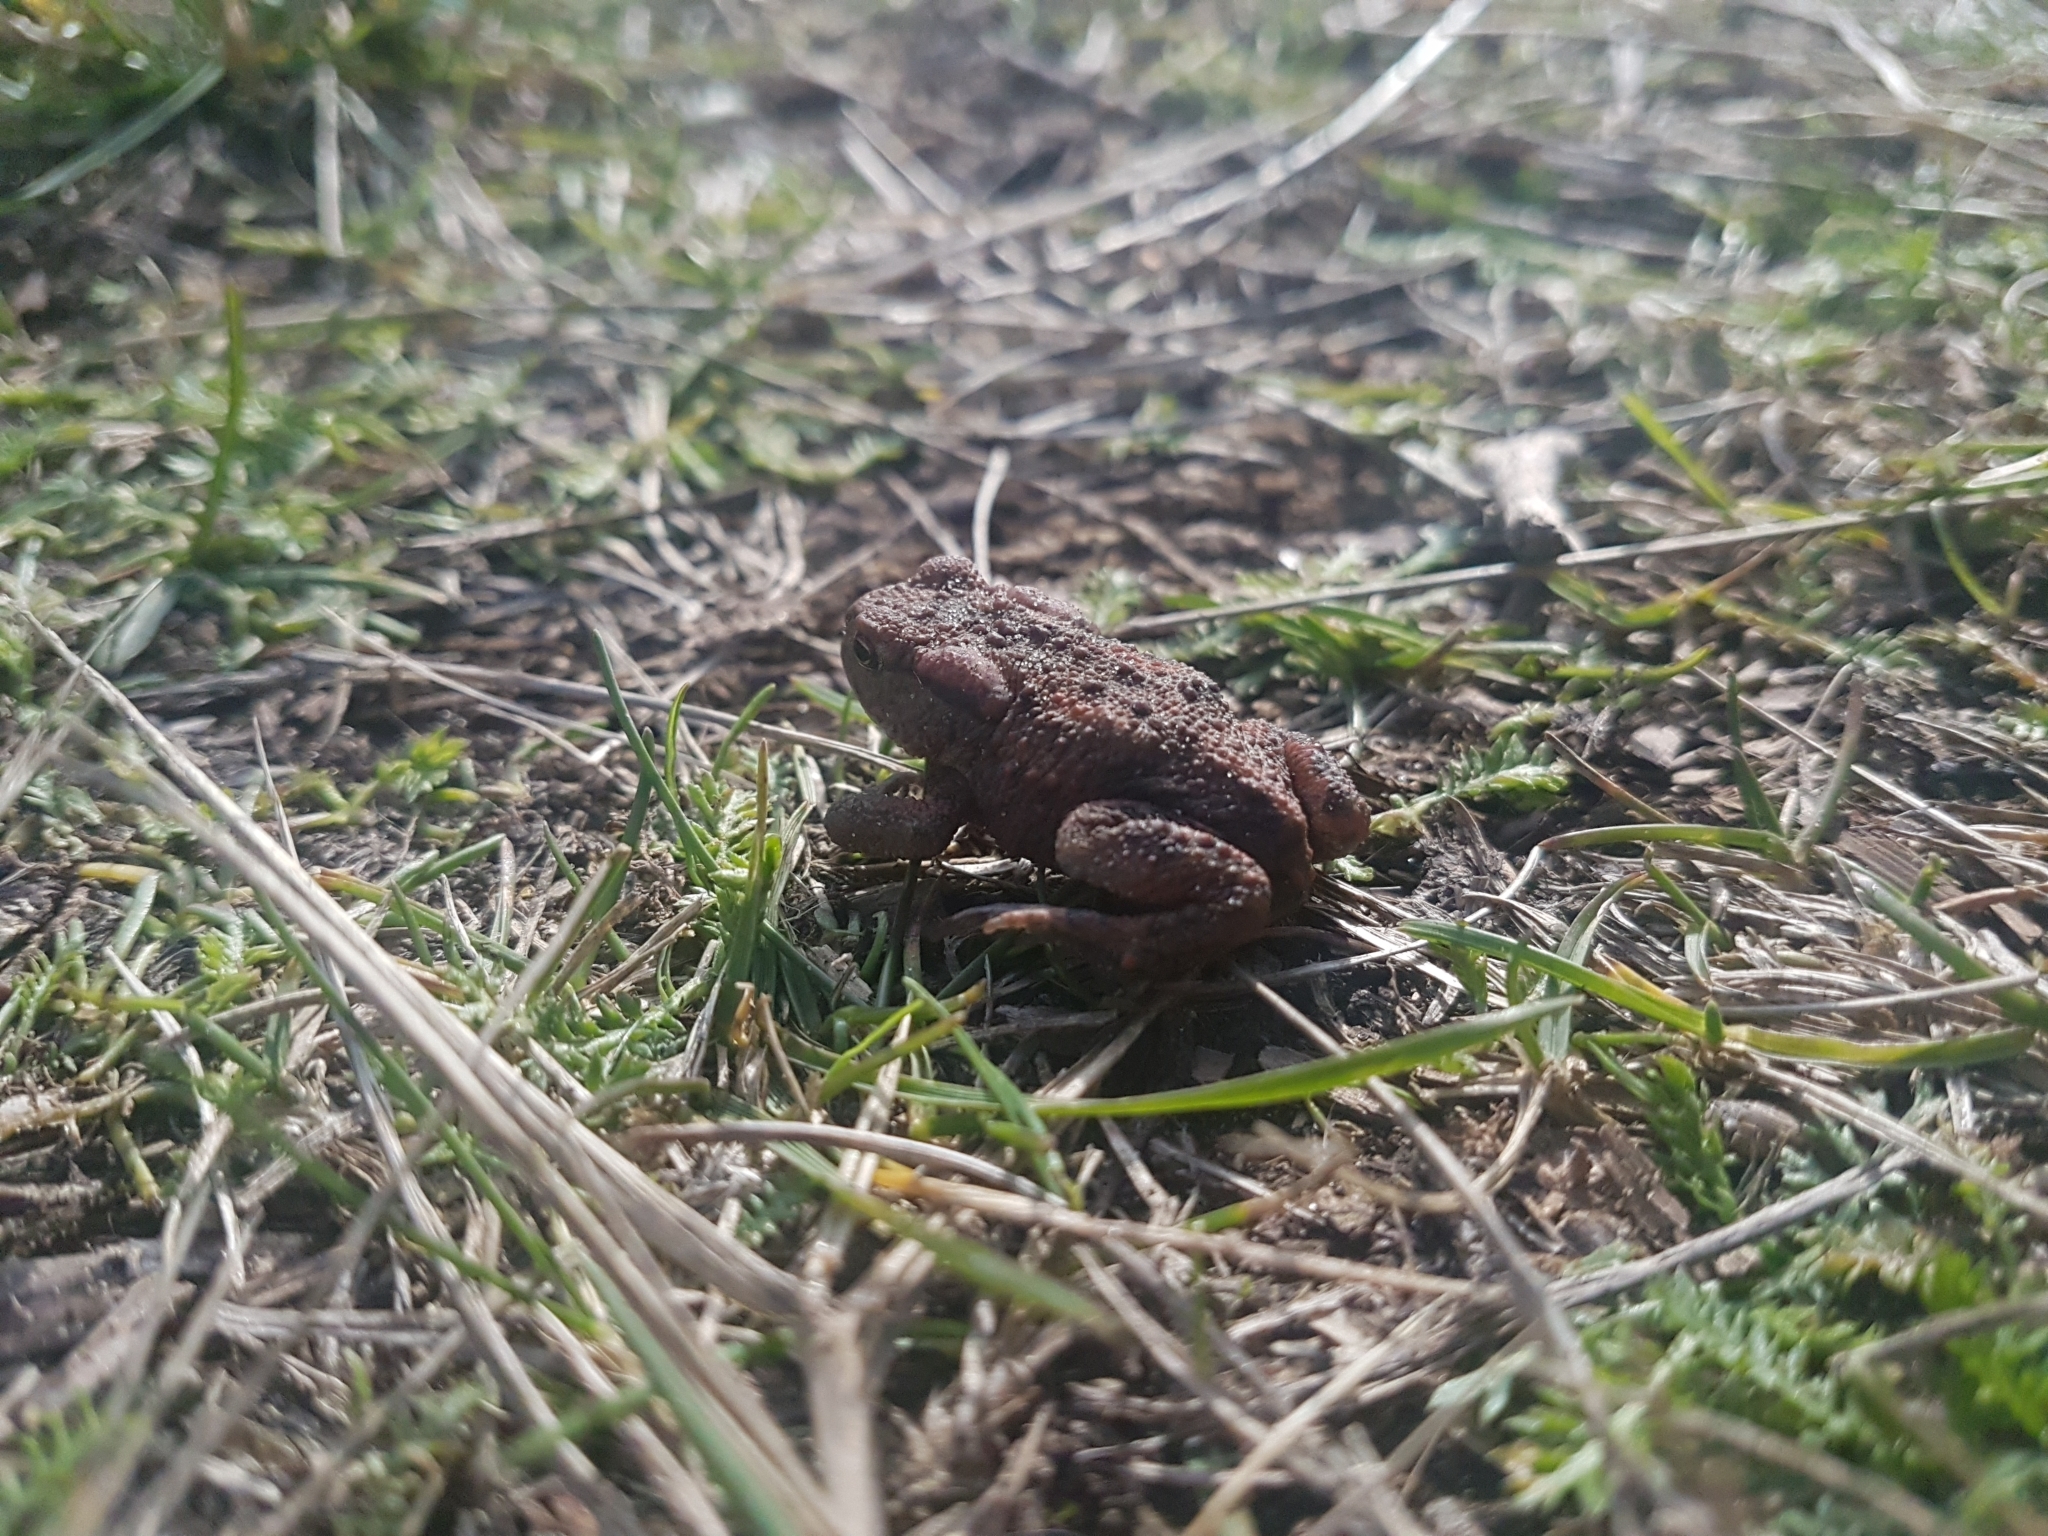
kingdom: Animalia
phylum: Chordata
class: Amphibia
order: Anura
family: Bufonidae
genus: Bufo
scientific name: Bufo bufo
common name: Common toad
